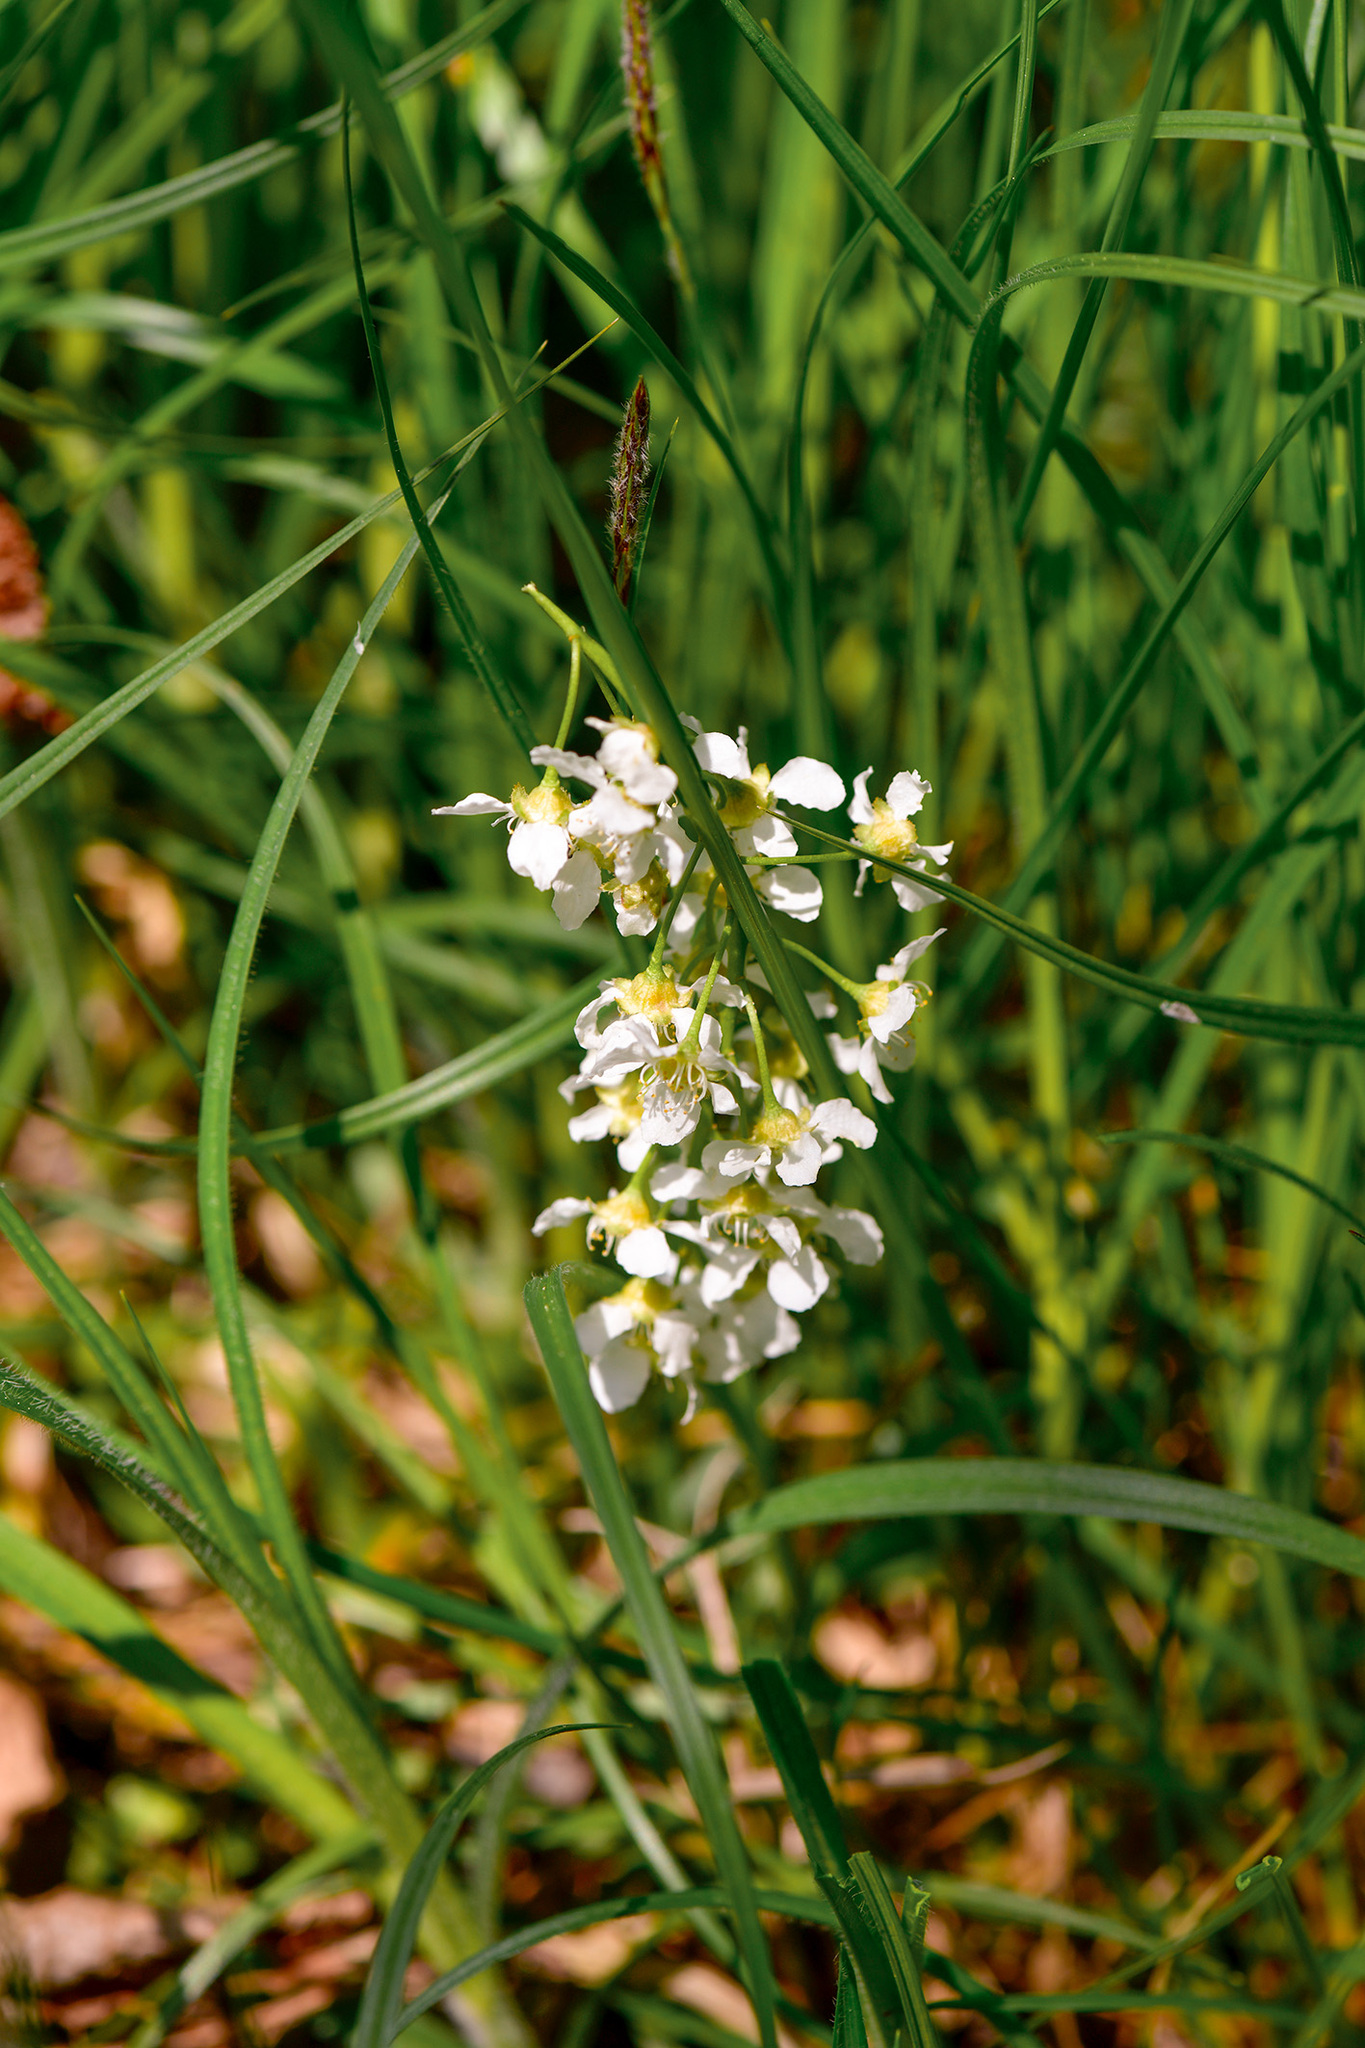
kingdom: Plantae
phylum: Tracheophyta
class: Magnoliopsida
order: Brassicales
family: Brassicaceae
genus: Arabidopsis
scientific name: Arabidopsis halleri
